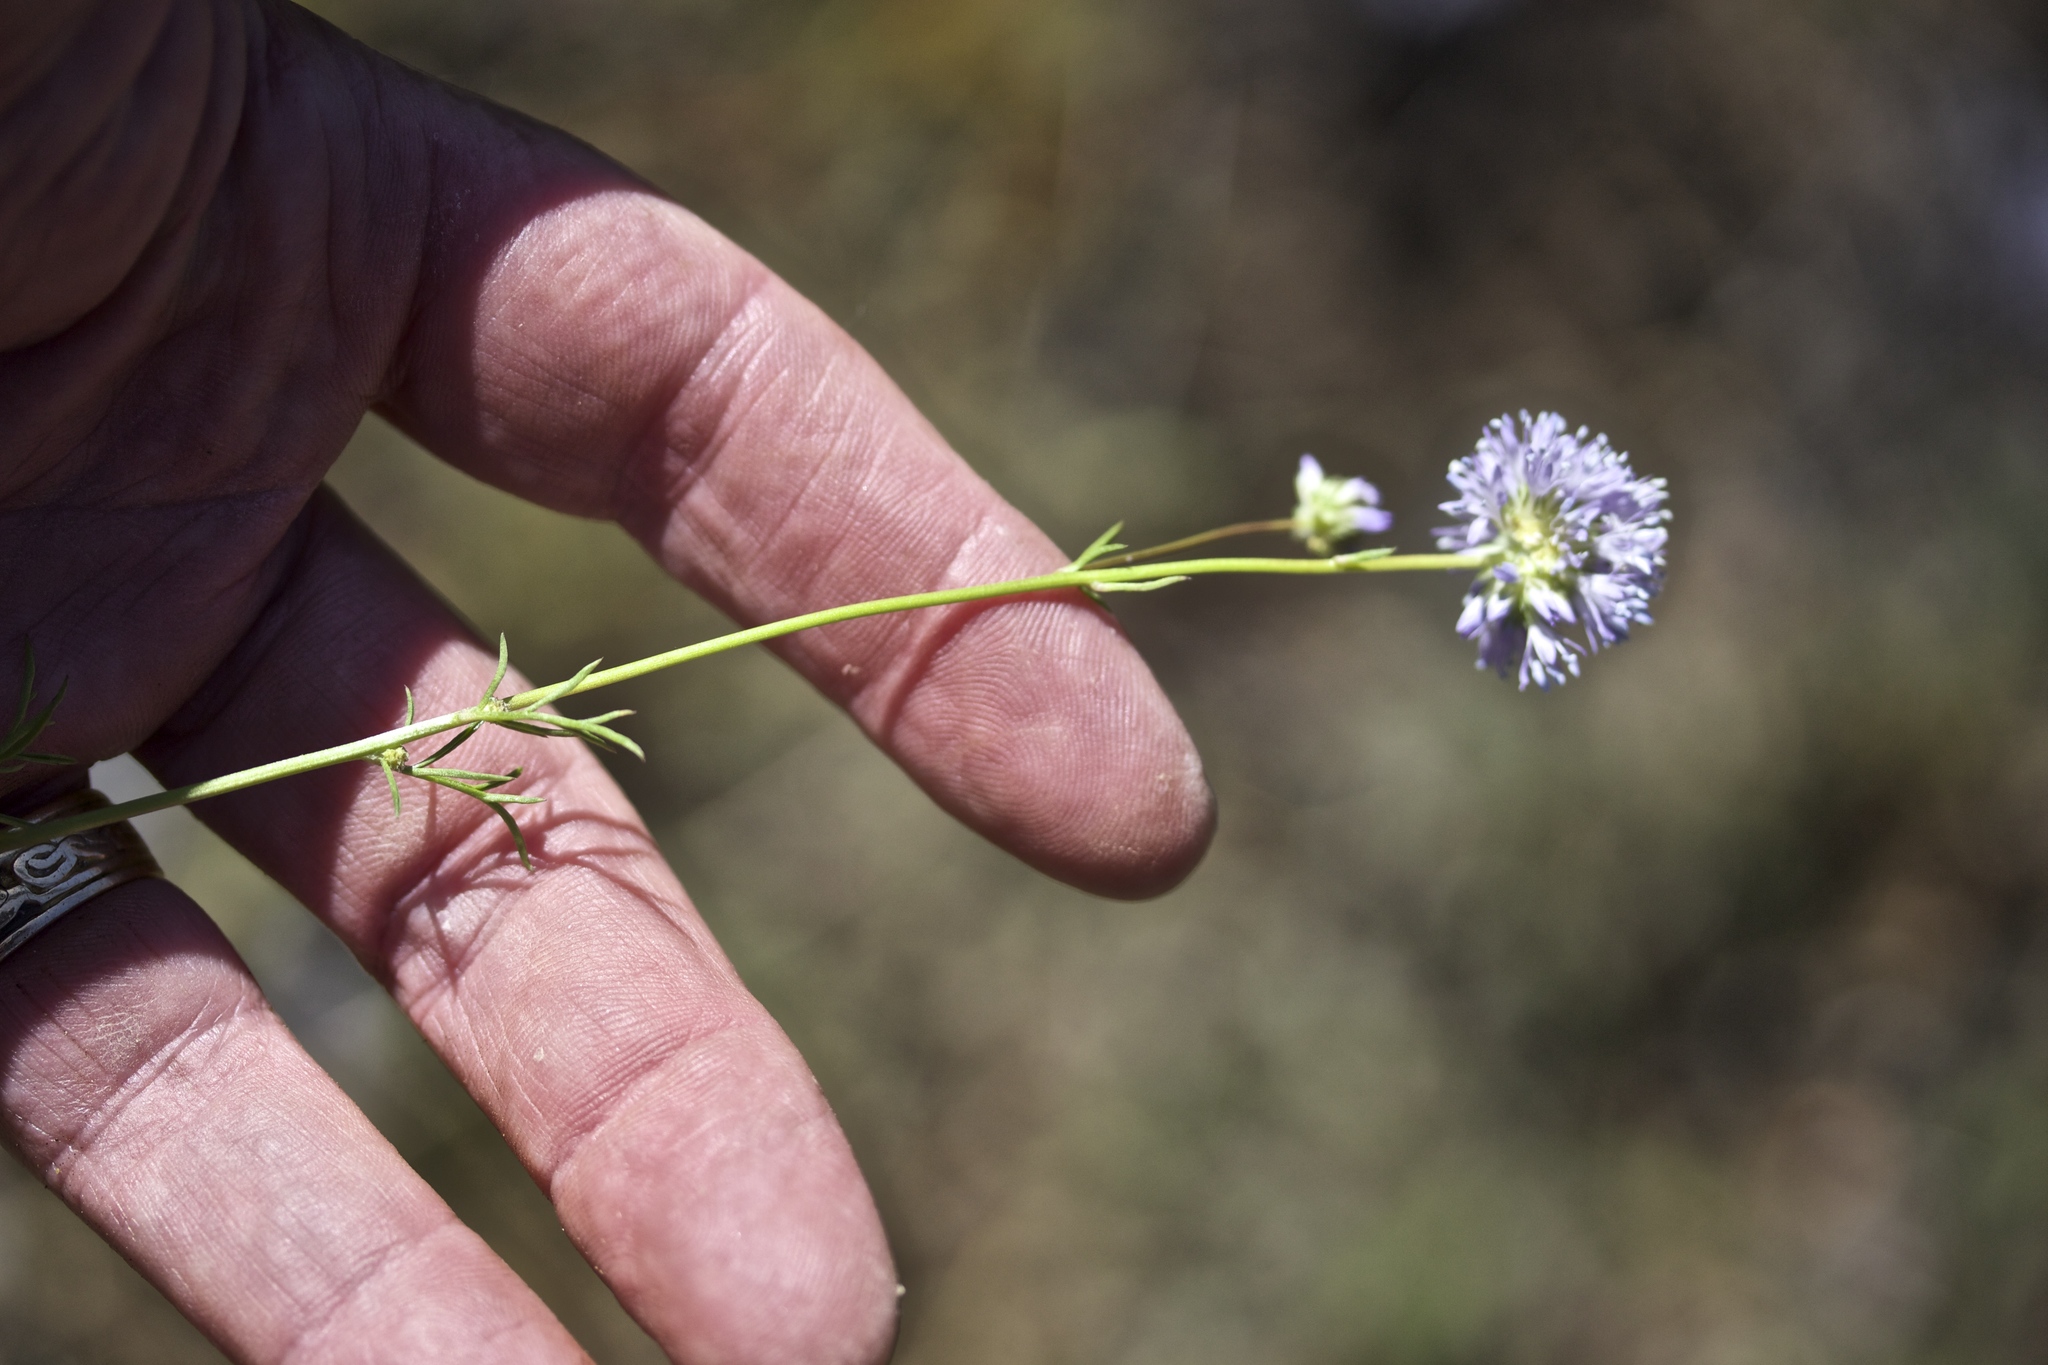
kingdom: Plantae
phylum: Tracheophyta
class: Magnoliopsida
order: Ericales
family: Polemoniaceae
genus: Gilia
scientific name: Gilia capitata
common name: Bluehead gilia
